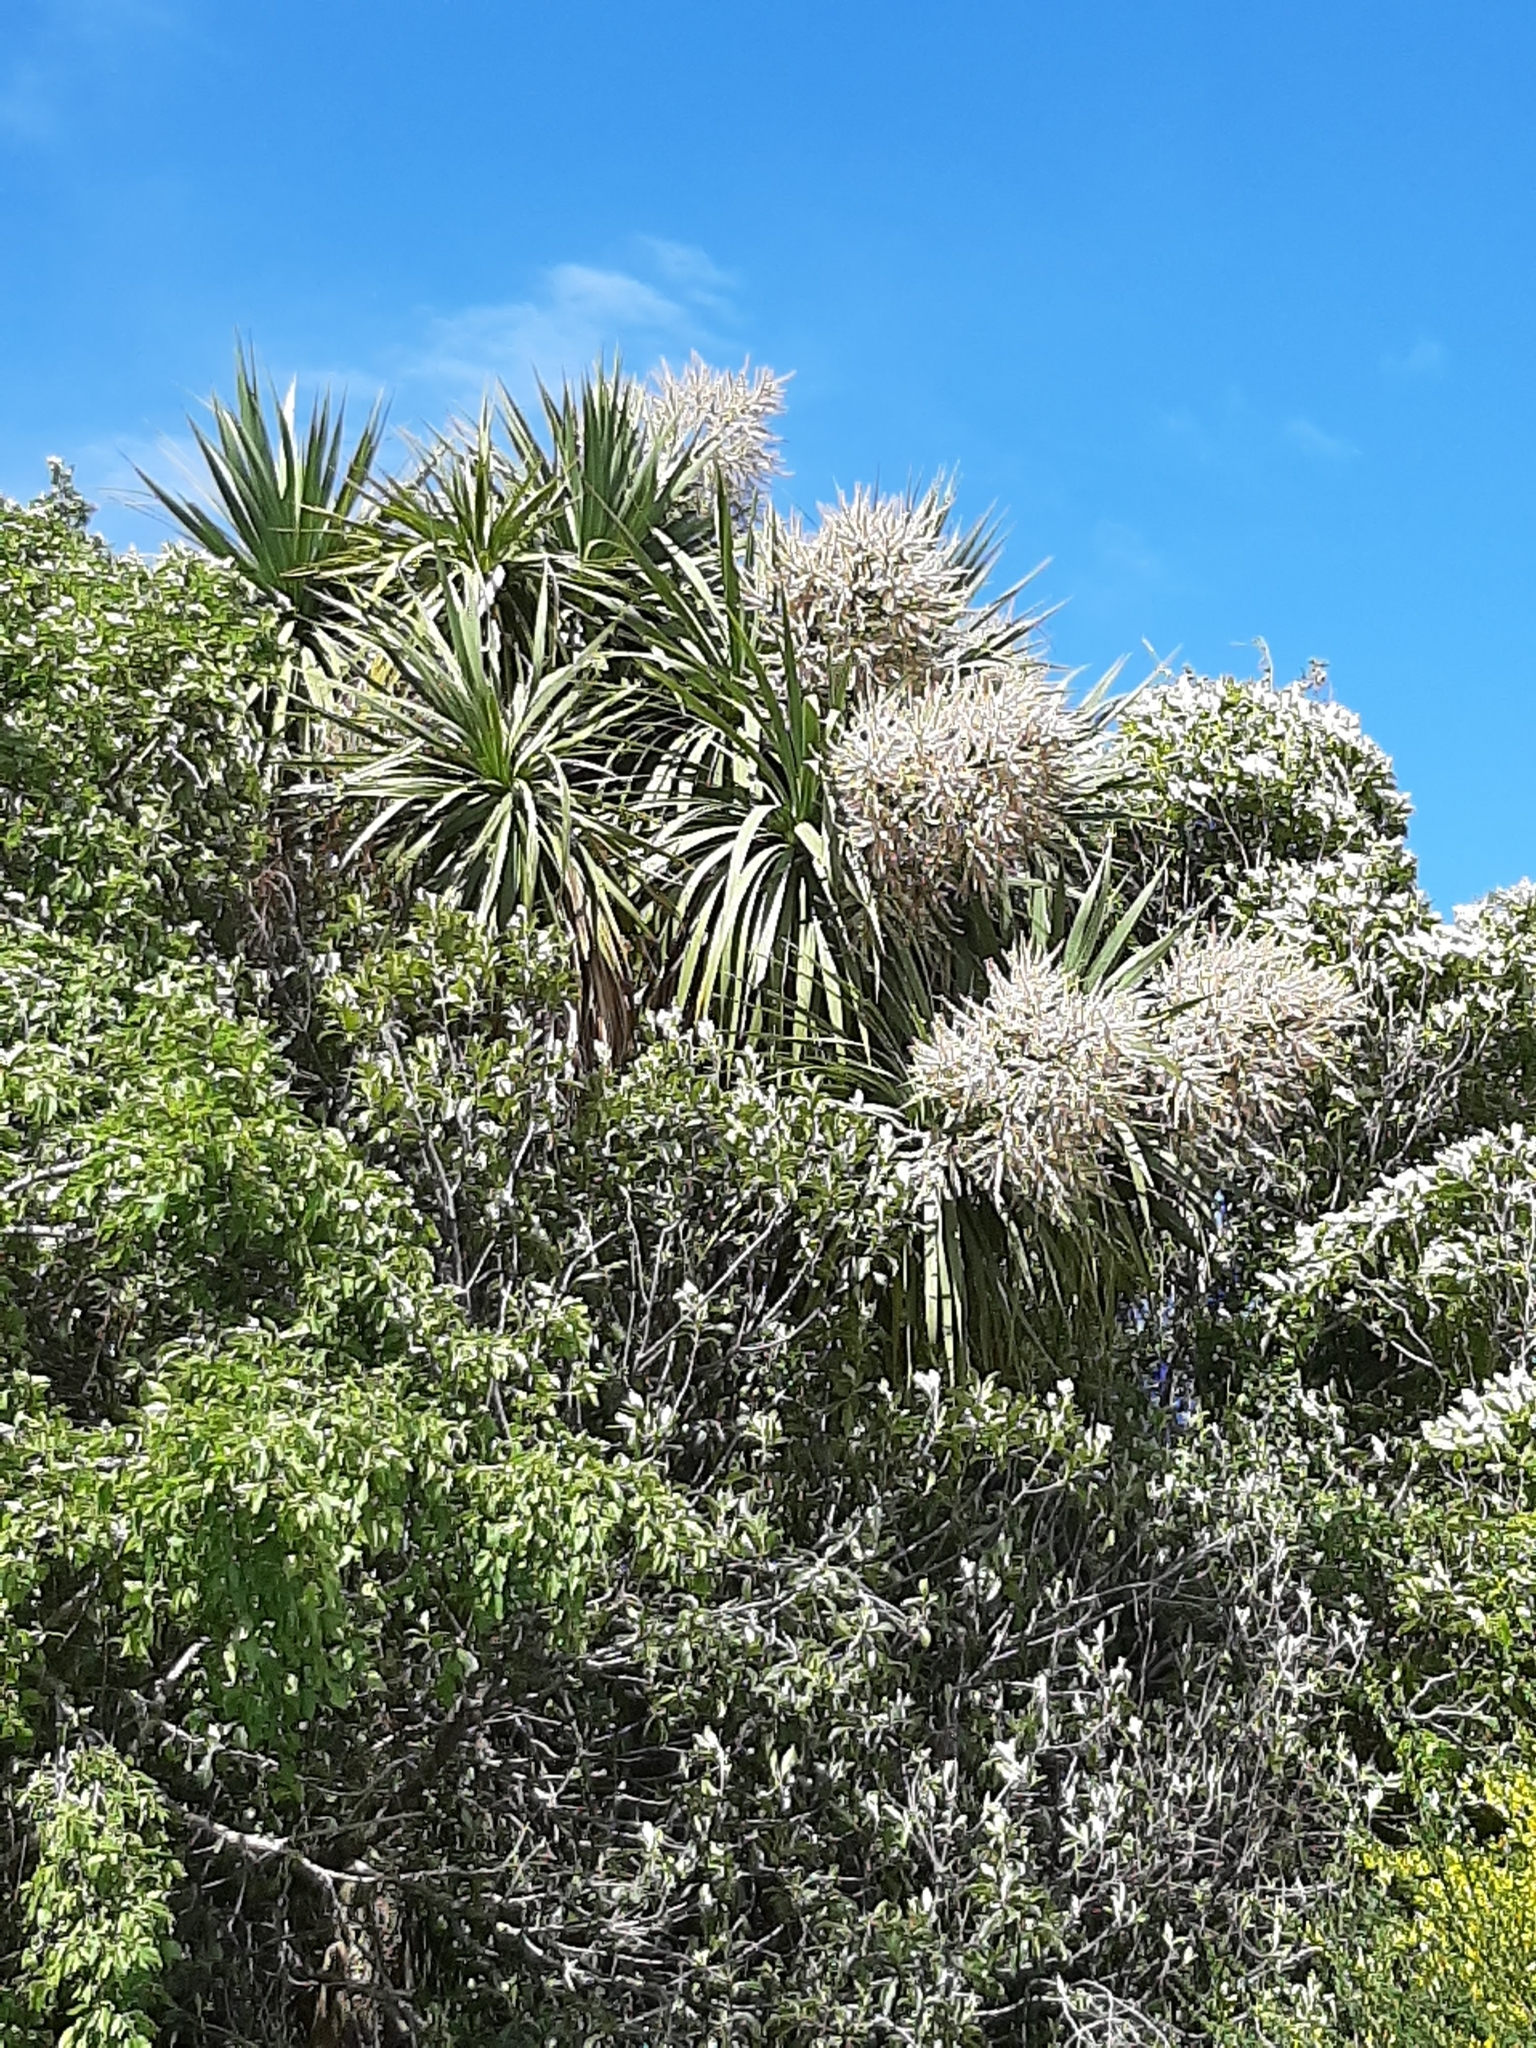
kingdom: Plantae
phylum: Tracheophyta
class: Liliopsida
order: Asparagales
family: Asparagaceae
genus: Cordyline
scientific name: Cordyline australis
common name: Cabbage-palm
